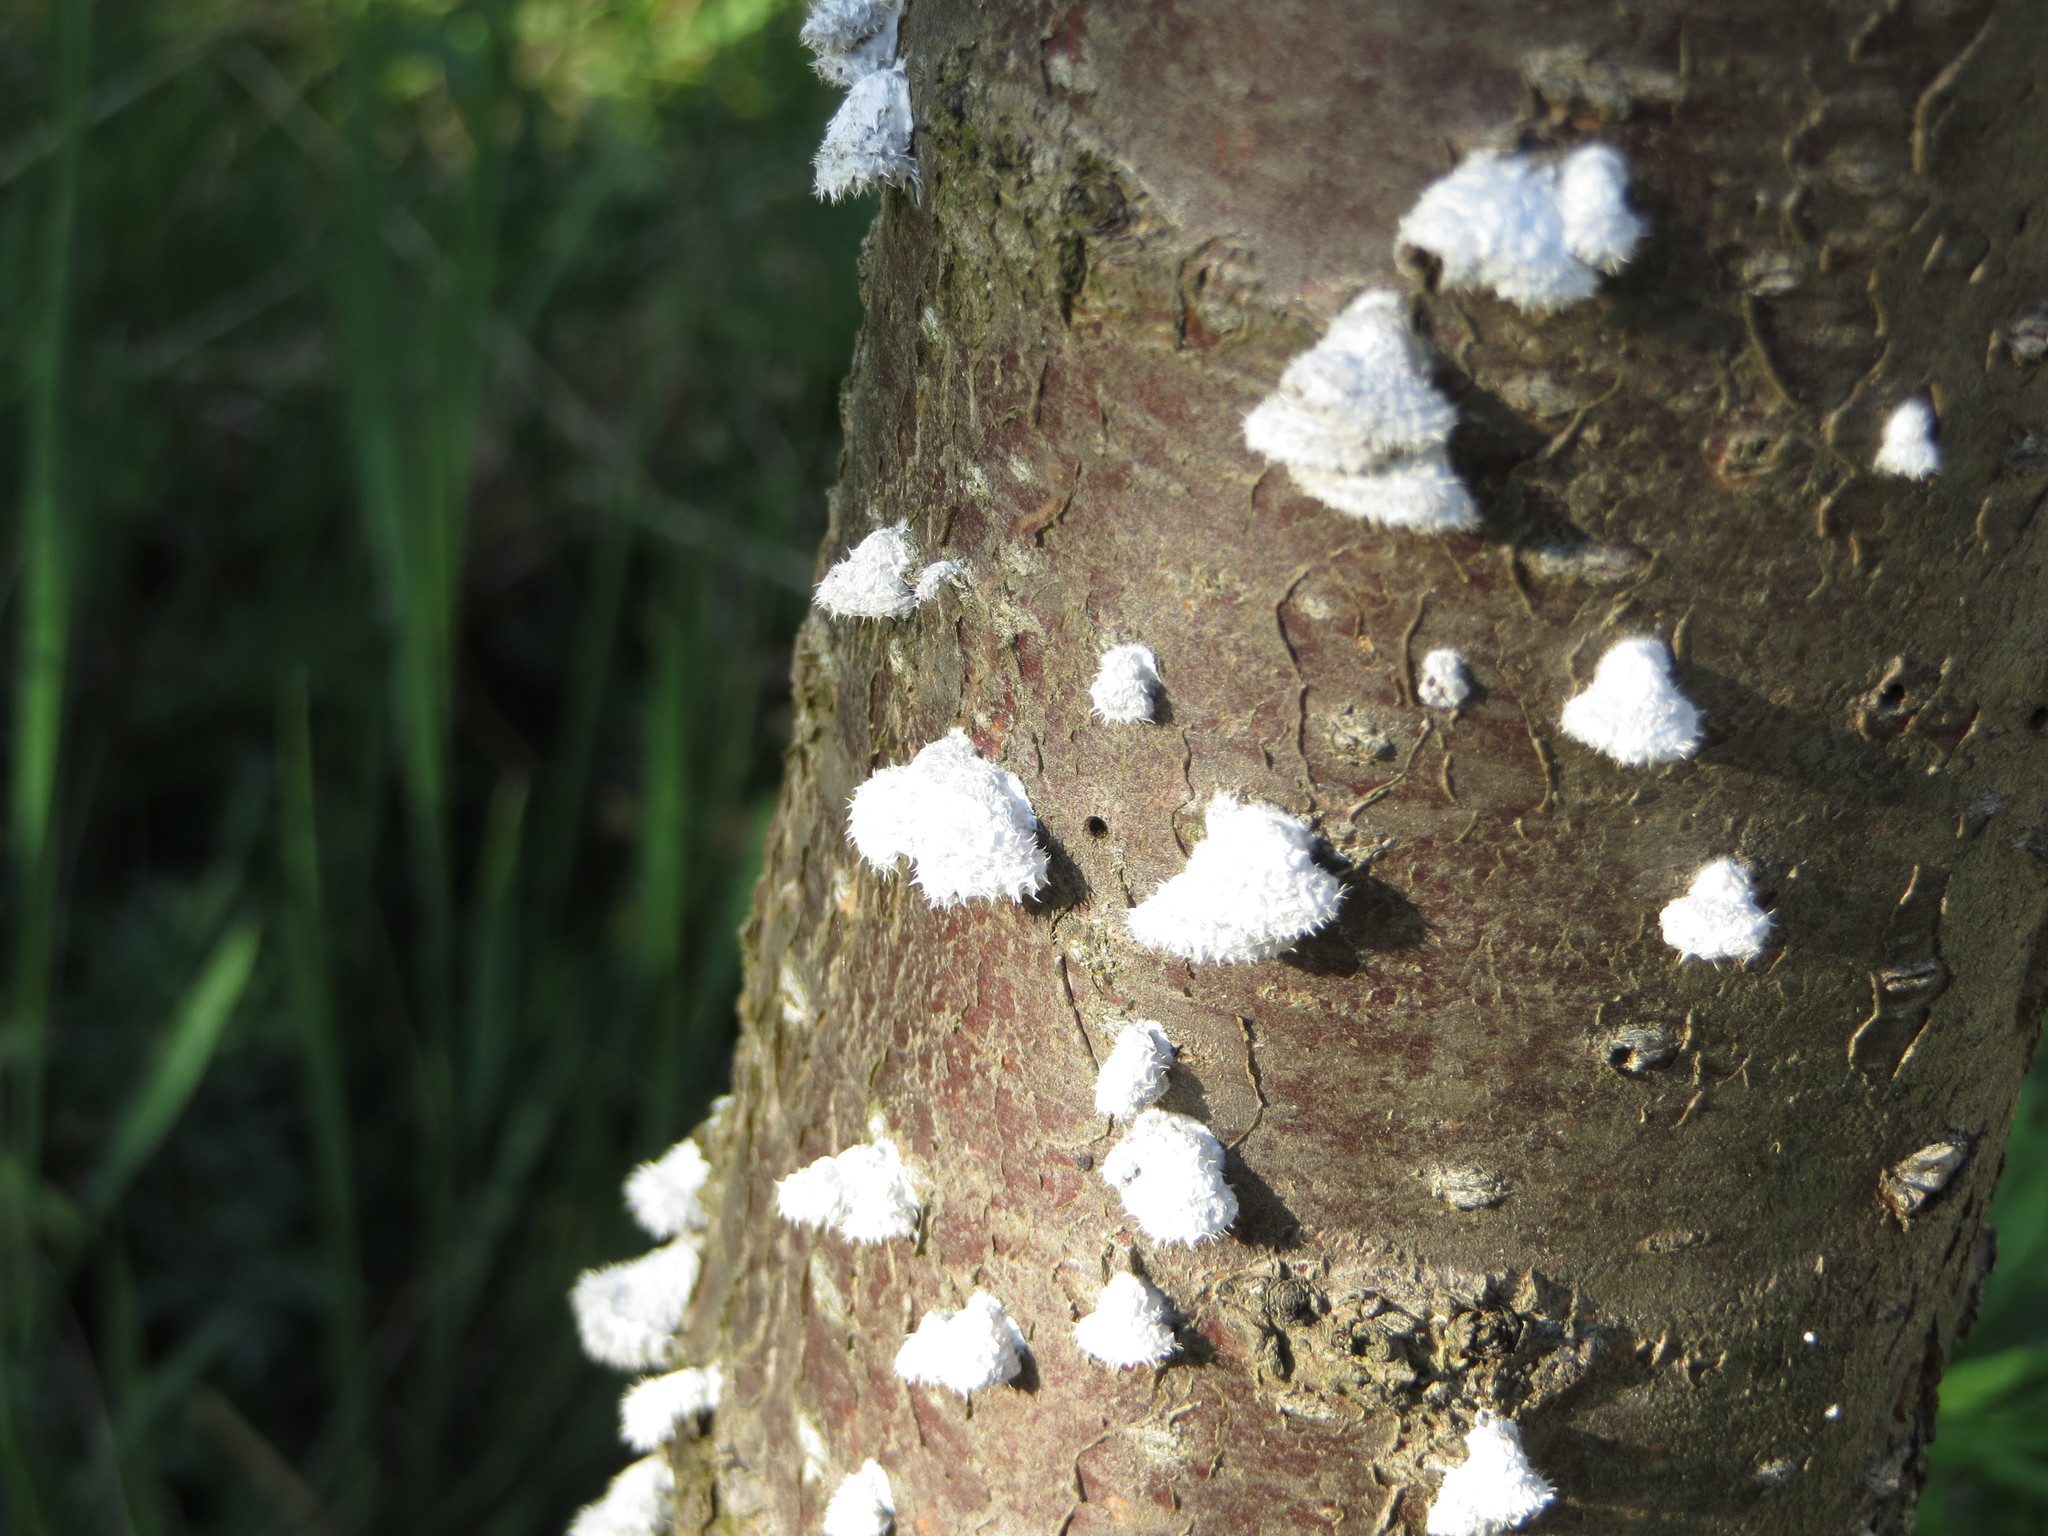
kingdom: Fungi
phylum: Basidiomycota
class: Agaricomycetes
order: Agaricales
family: Schizophyllaceae
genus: Schizophyllum
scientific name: Schizophyllum commune
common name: Common porecrust
